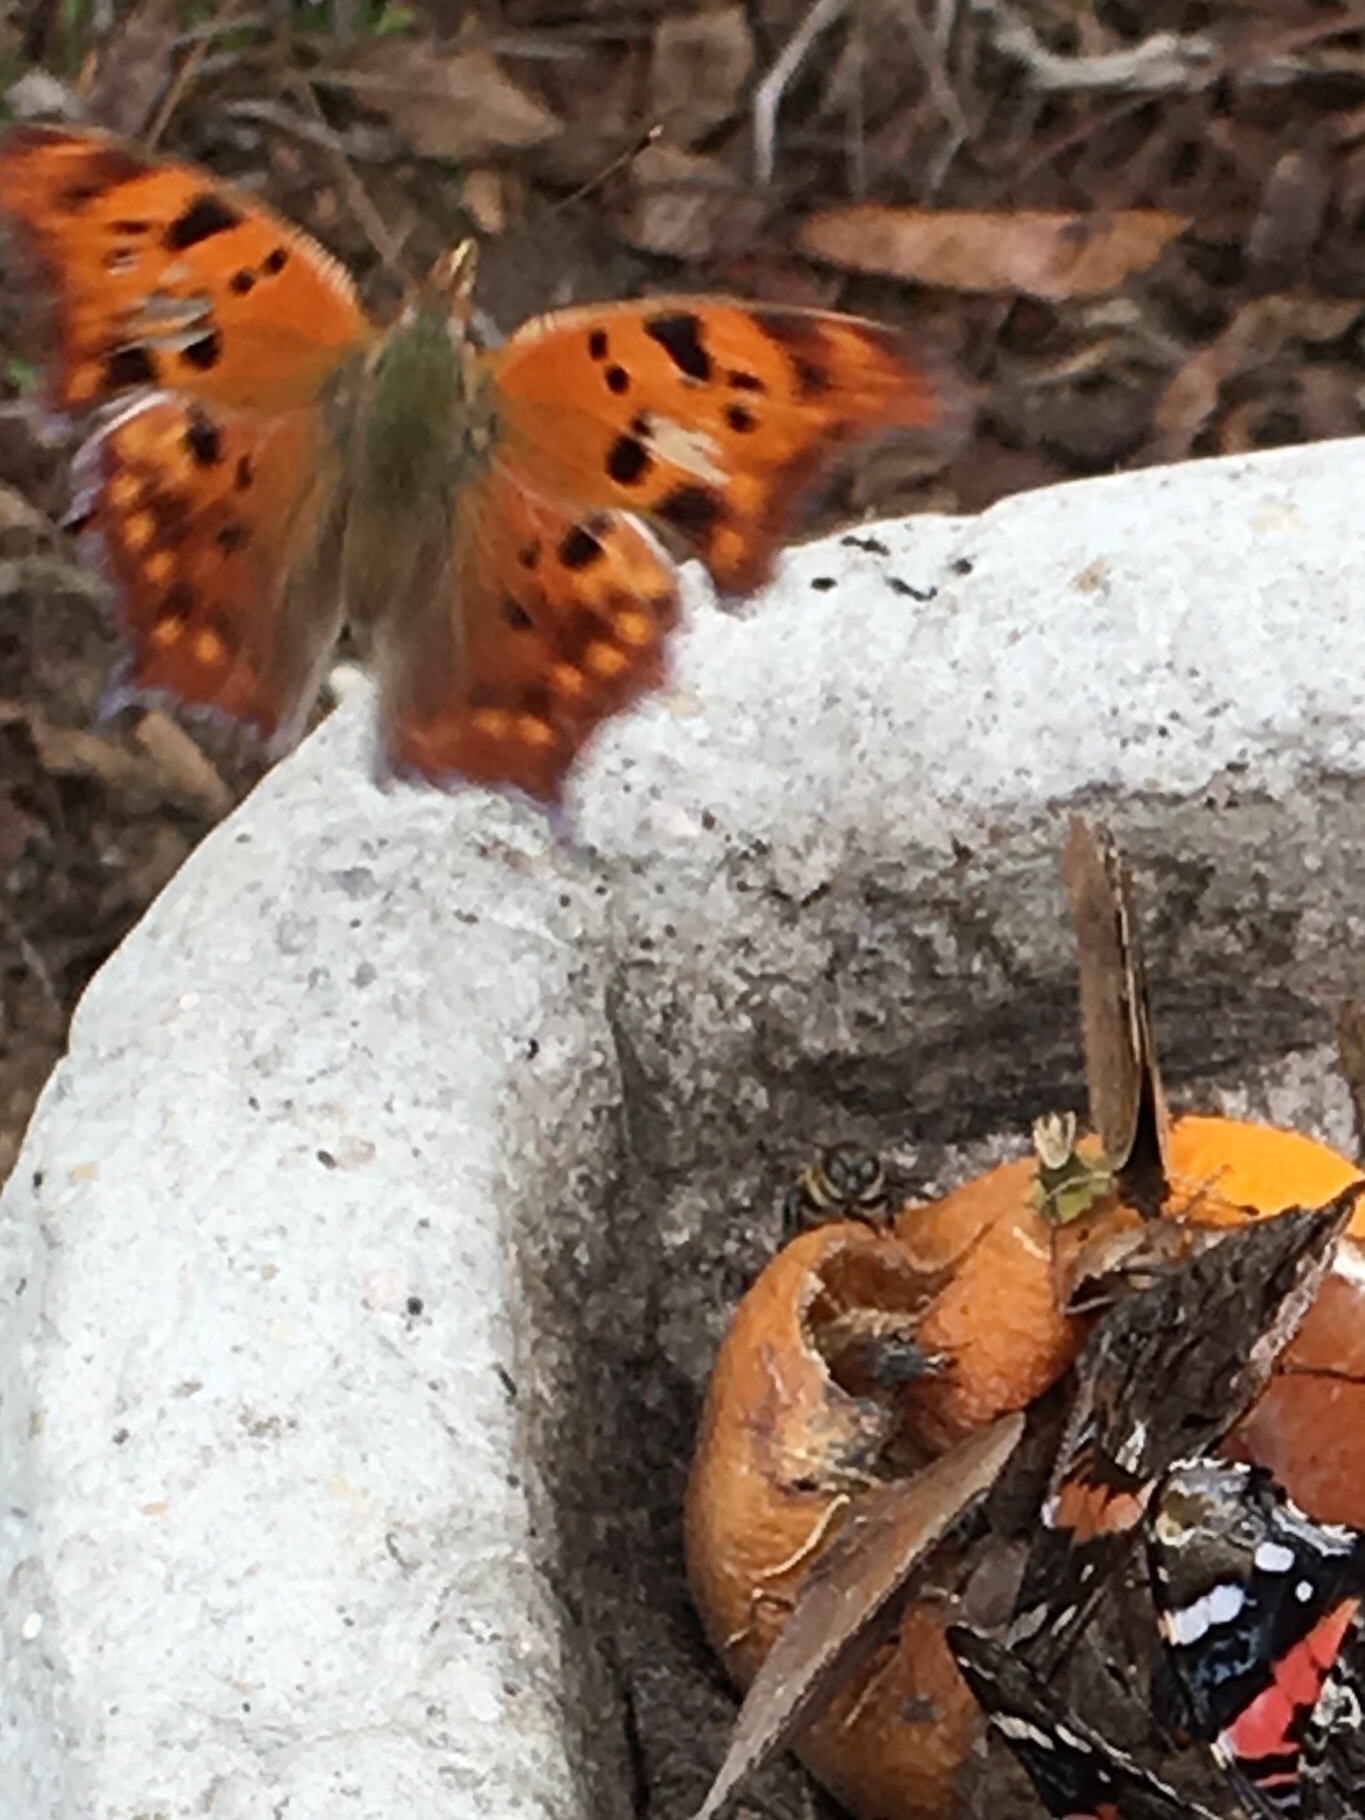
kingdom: Animalia
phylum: Arthropoda
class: Insecta
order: Lepidoptera
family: Nymphalidae
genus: Polygonia
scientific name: Polygonia interrogationis
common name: Question mark
